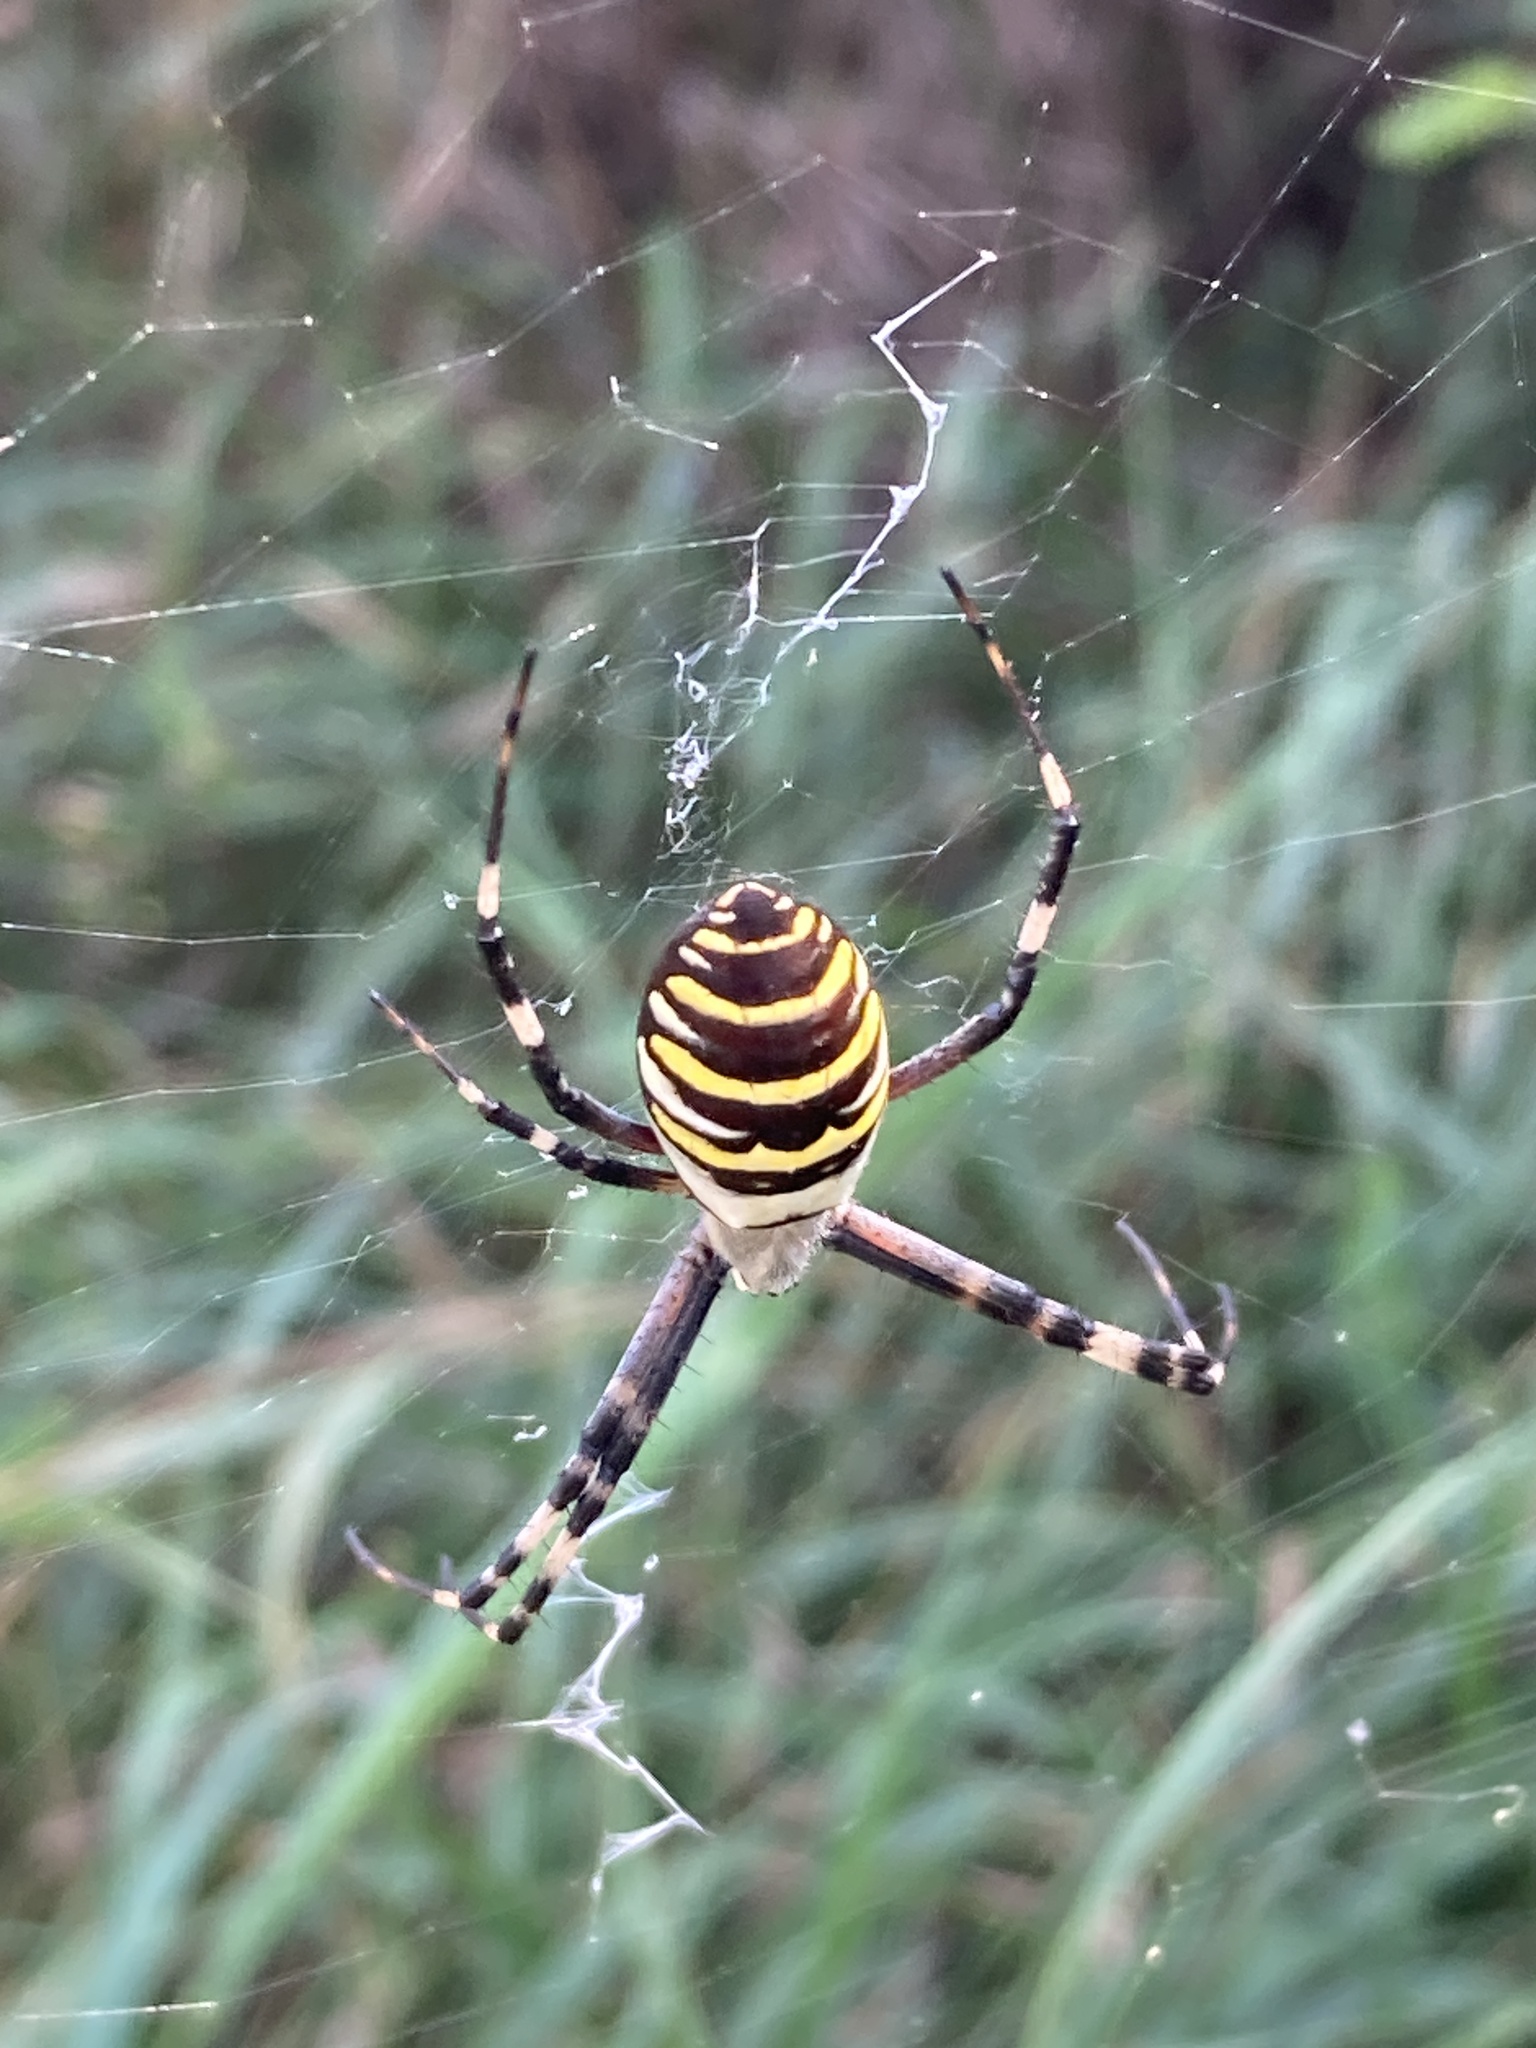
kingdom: Animalia
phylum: Arthropoda
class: Arachnida
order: Araneae
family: Araneidae
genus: Argiope
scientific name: Argiope bruennichi
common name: Wasp spider
